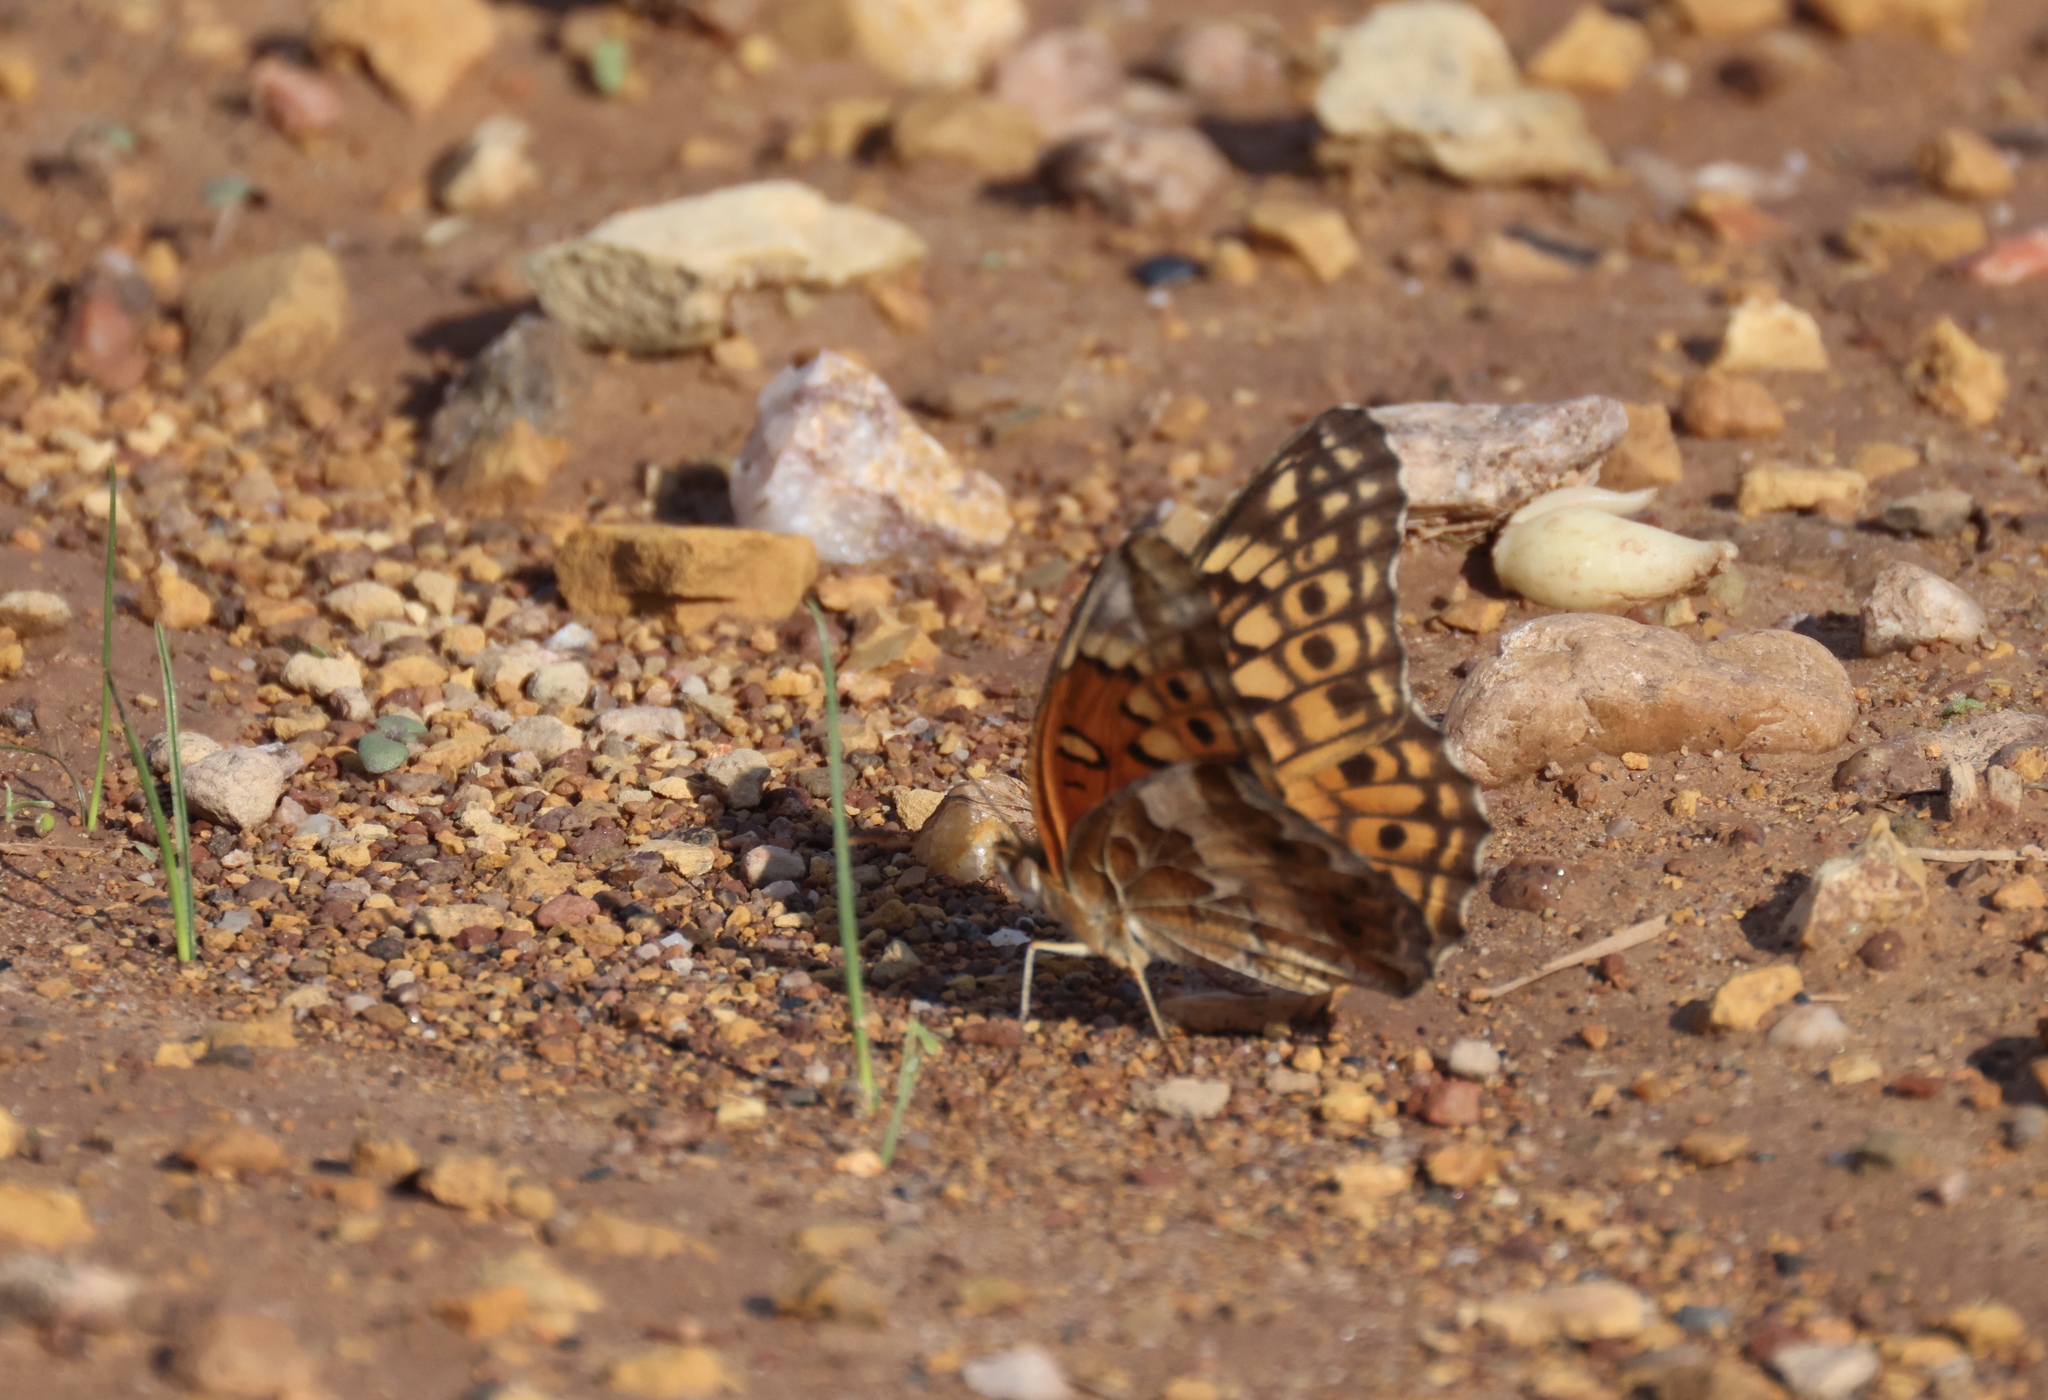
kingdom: Animalia
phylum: Arthropoda
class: Insecta
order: Lepidoptera
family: Nymphalidae
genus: Euptoieta
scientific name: Euptoieta claudia
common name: Variegated fritillary
